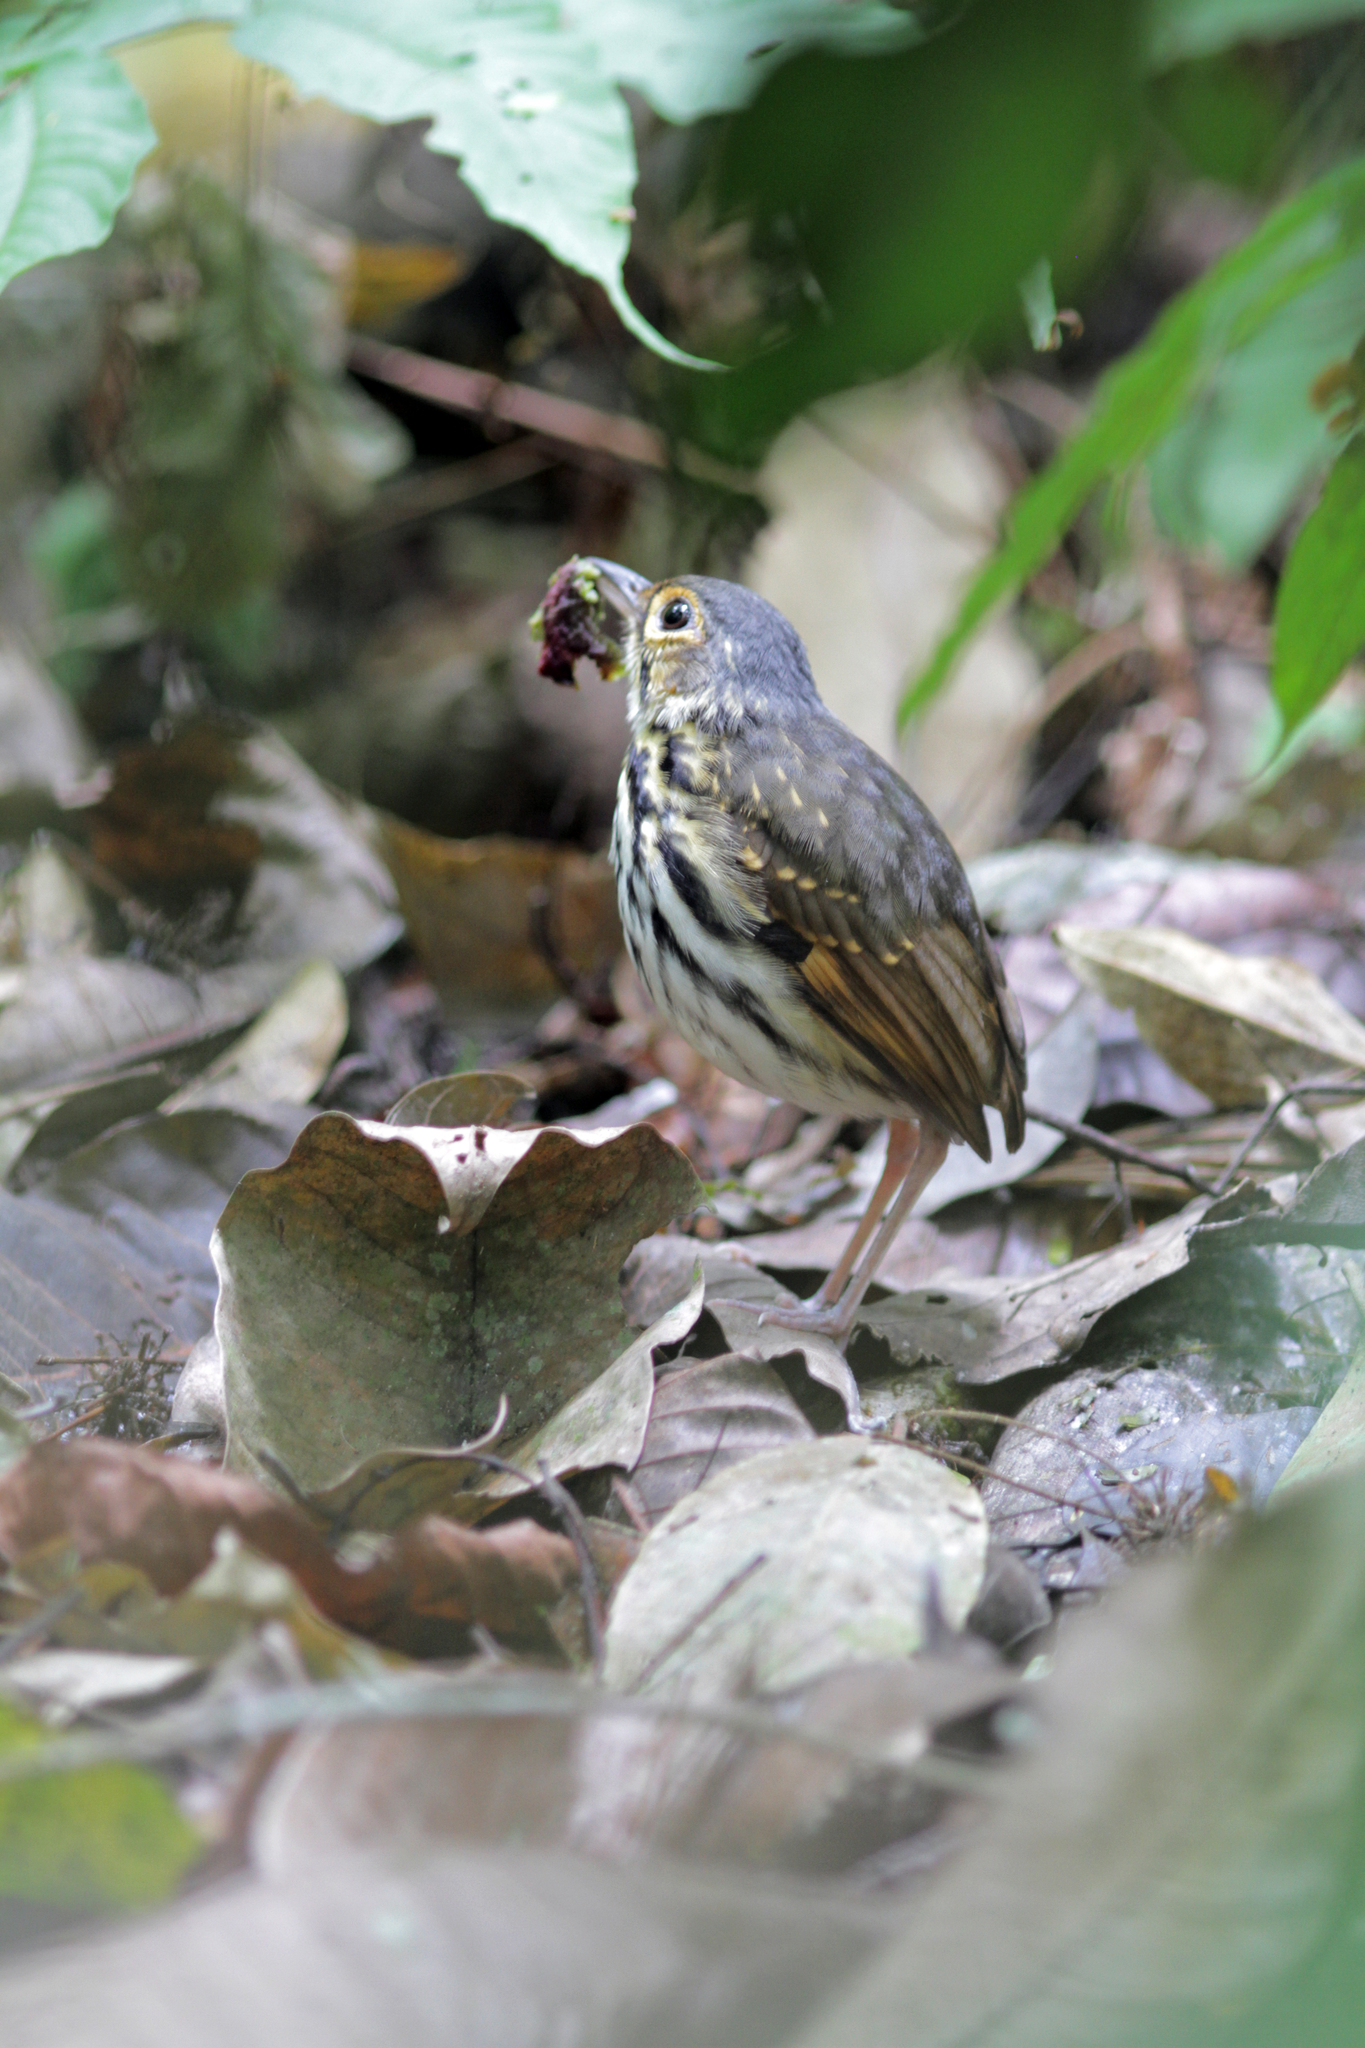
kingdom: Animalia
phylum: Chordata
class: Aves
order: Passeriformes
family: Grallariidae
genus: Hylopezus
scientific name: Hylopezus perspicillatus
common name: Streak-chested antpitta
